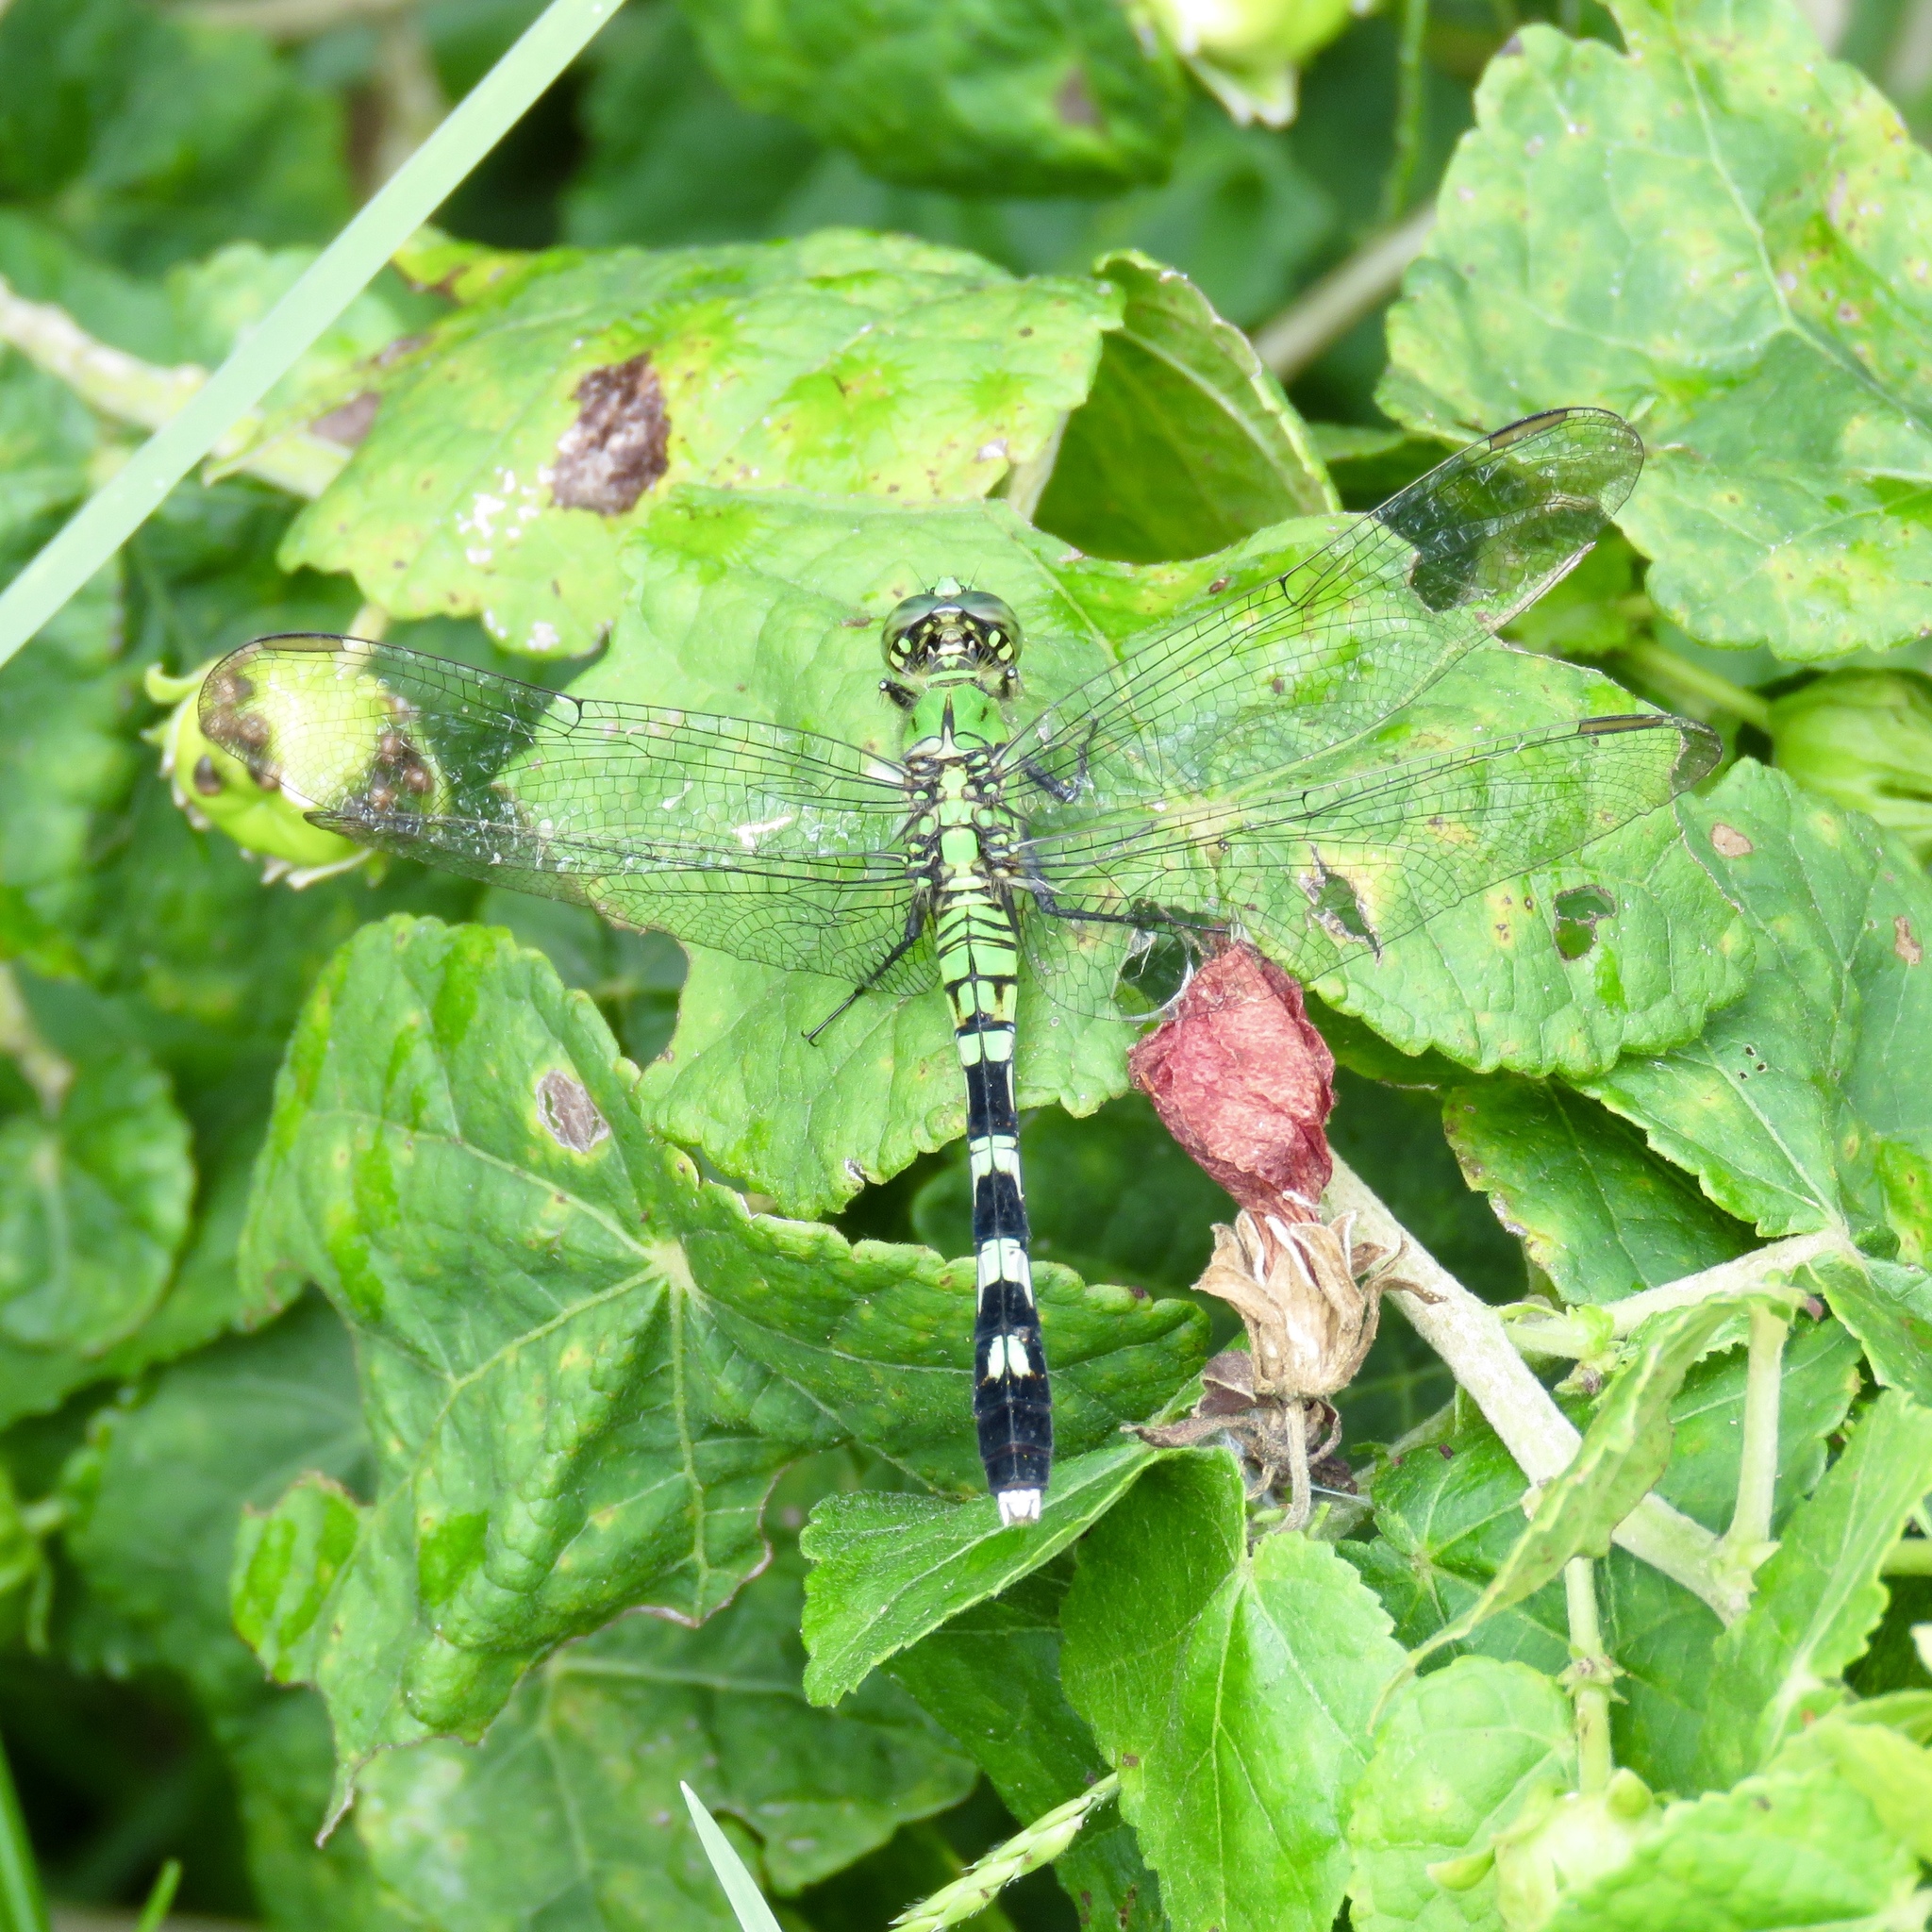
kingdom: Animalia
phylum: Arthropoda
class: Insecta
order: Odonata
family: Libellulidae
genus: Erythemis
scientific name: Erythemis simplicicollis
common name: Eastern pondhawk
